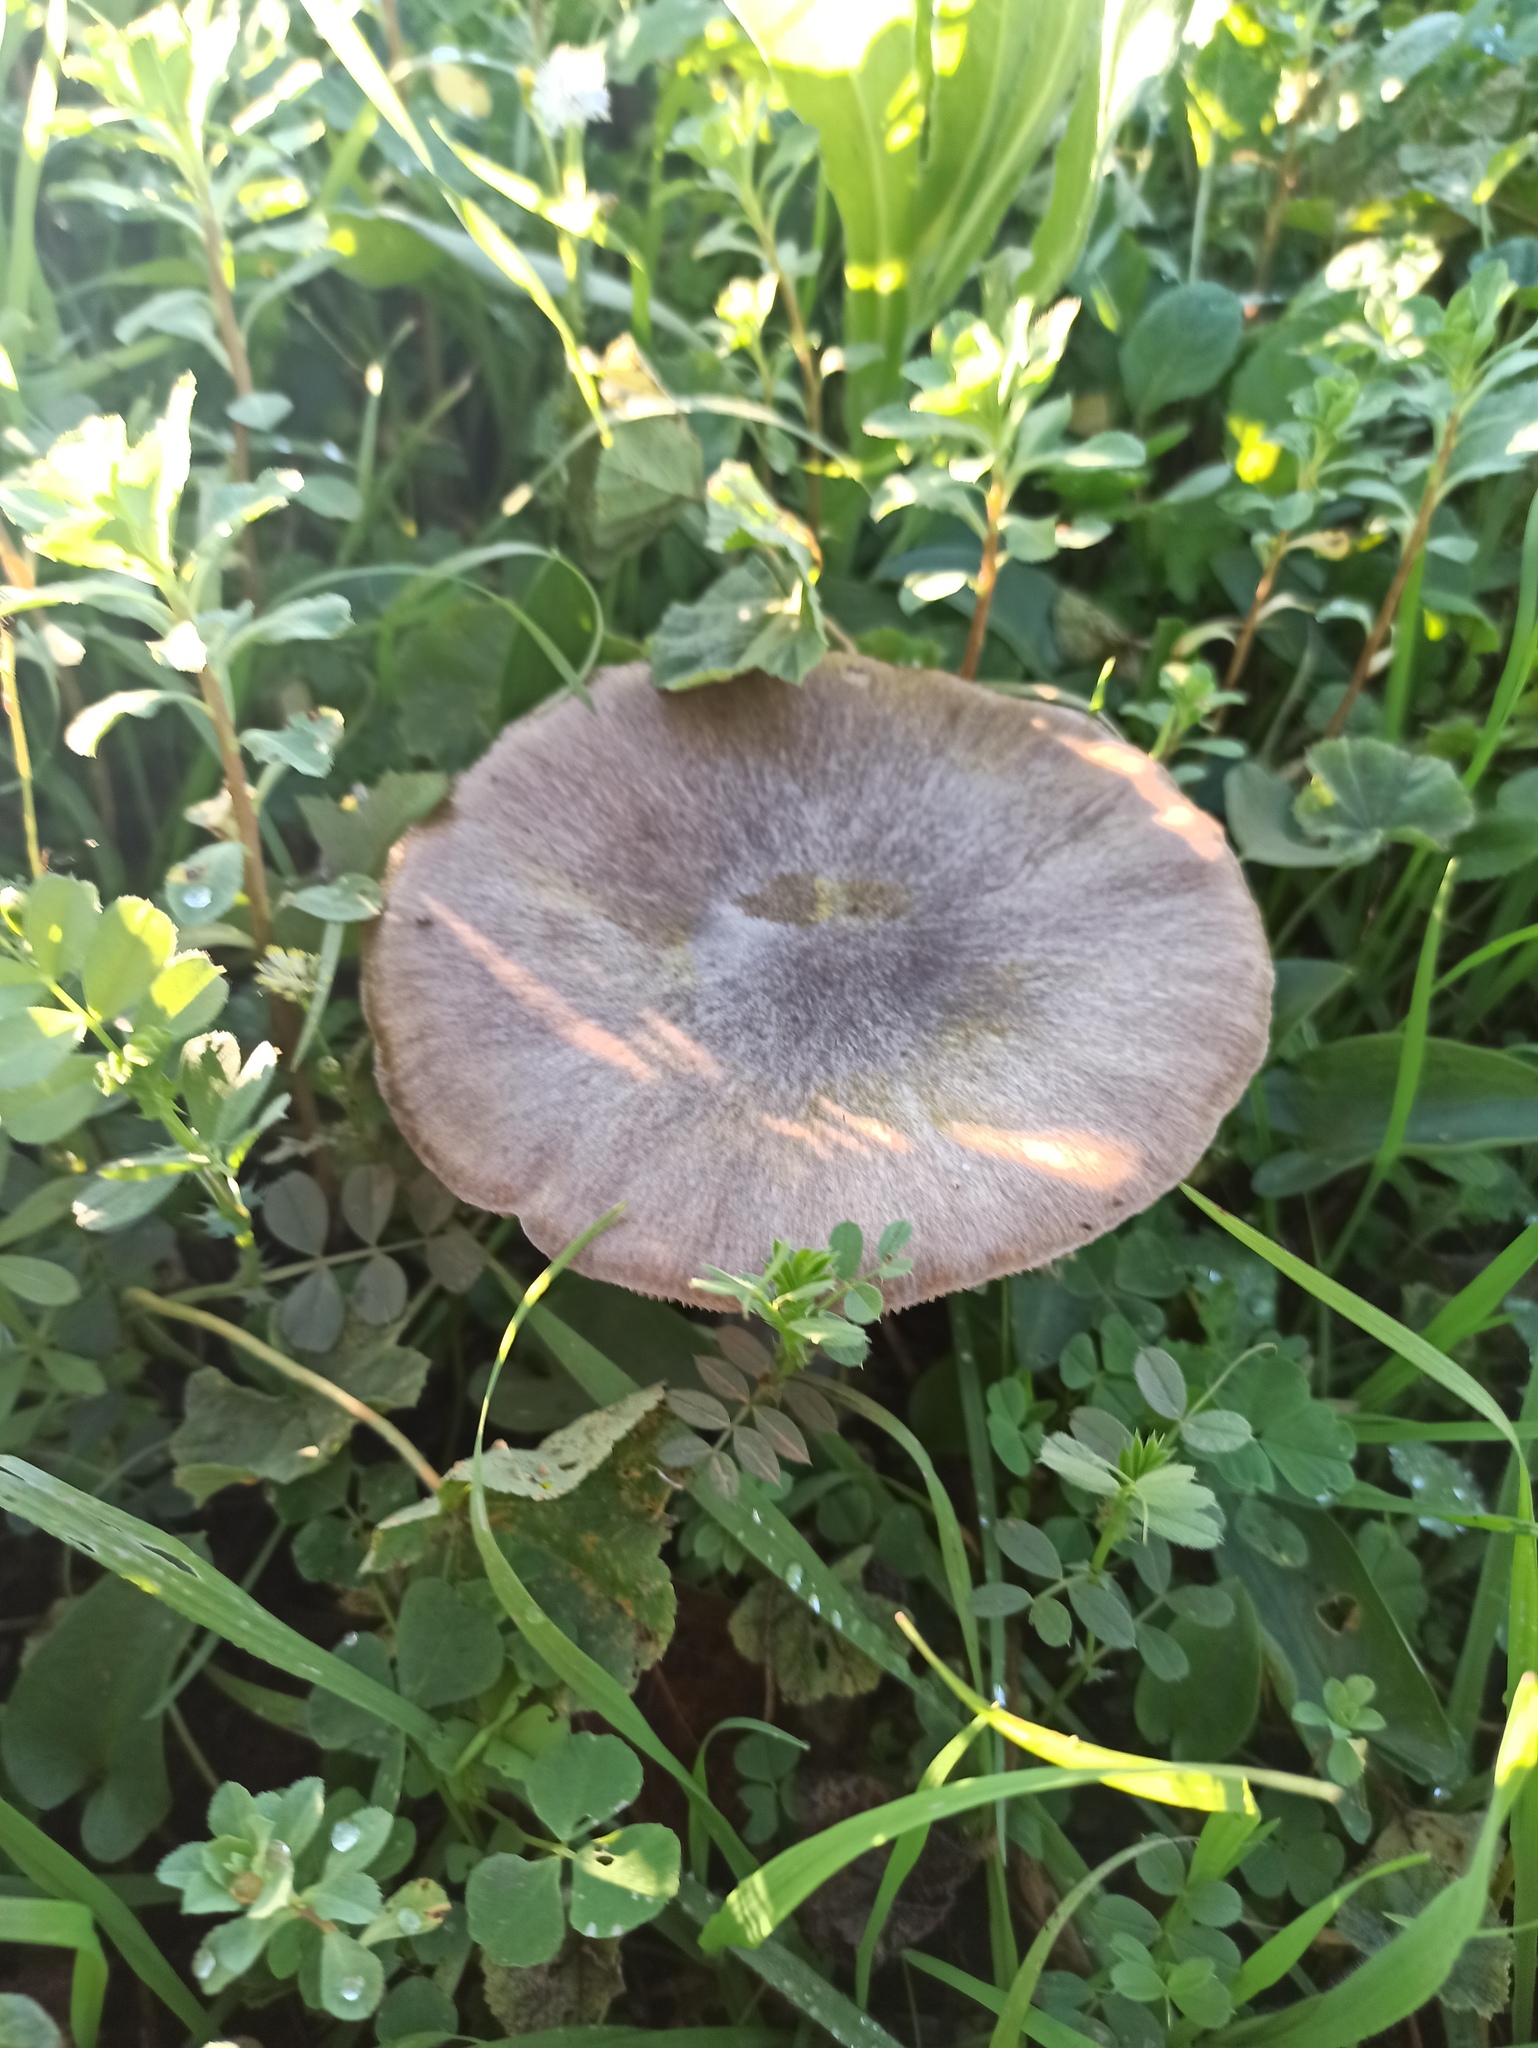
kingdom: Fungi
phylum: Basidiomycota
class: Agaricomycetes
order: Agaricales
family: Pluteaceae
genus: Volvopluteus
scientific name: Volvopluteus gloiocephalus
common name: Stubble rosegill
